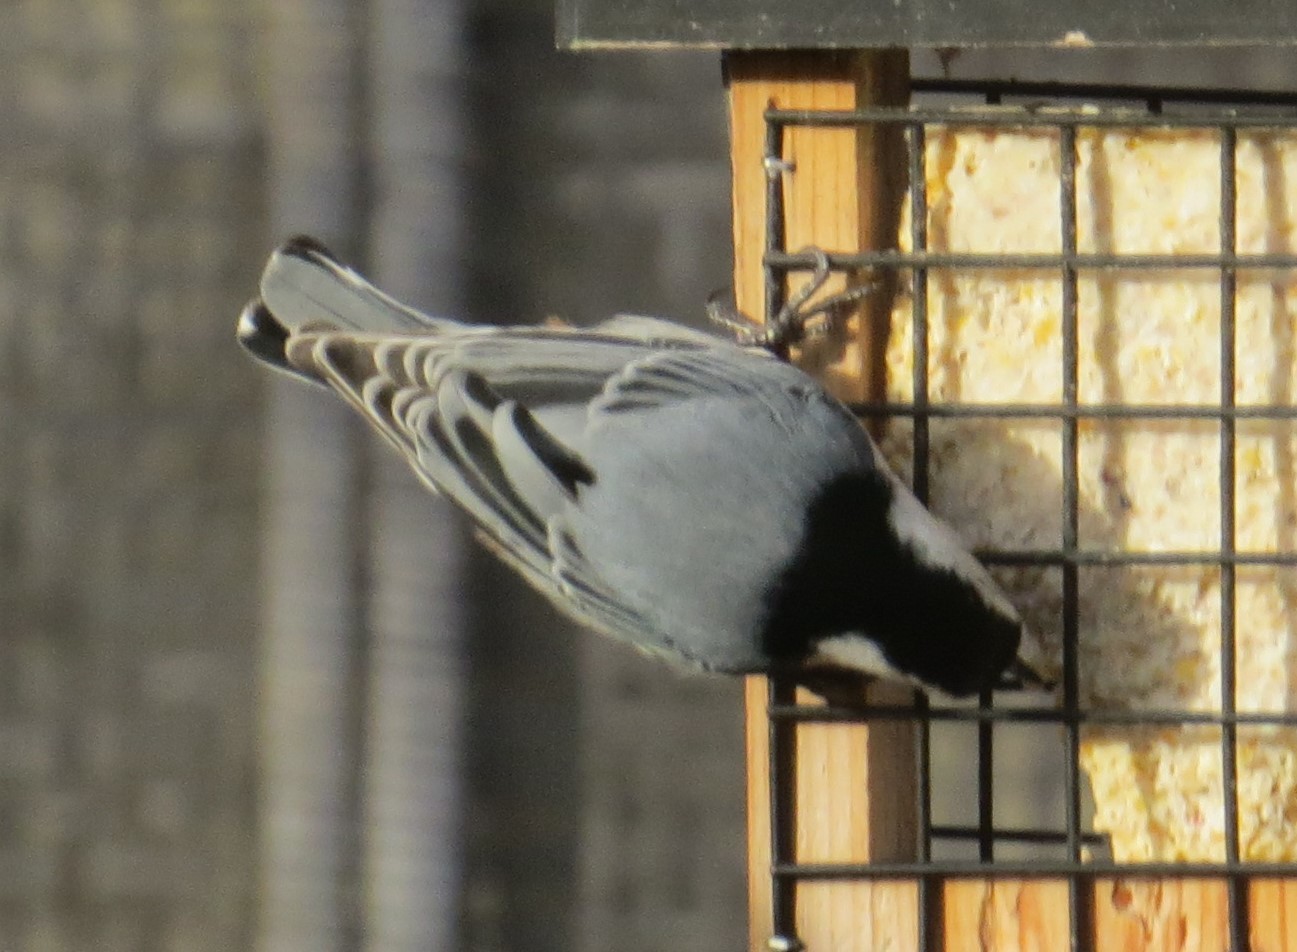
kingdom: Animalia
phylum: Chordata
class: Aves
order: Passeriformes
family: Sittidae
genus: Sitta
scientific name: Sitta carolinensis
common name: White-breasted nuthatch
